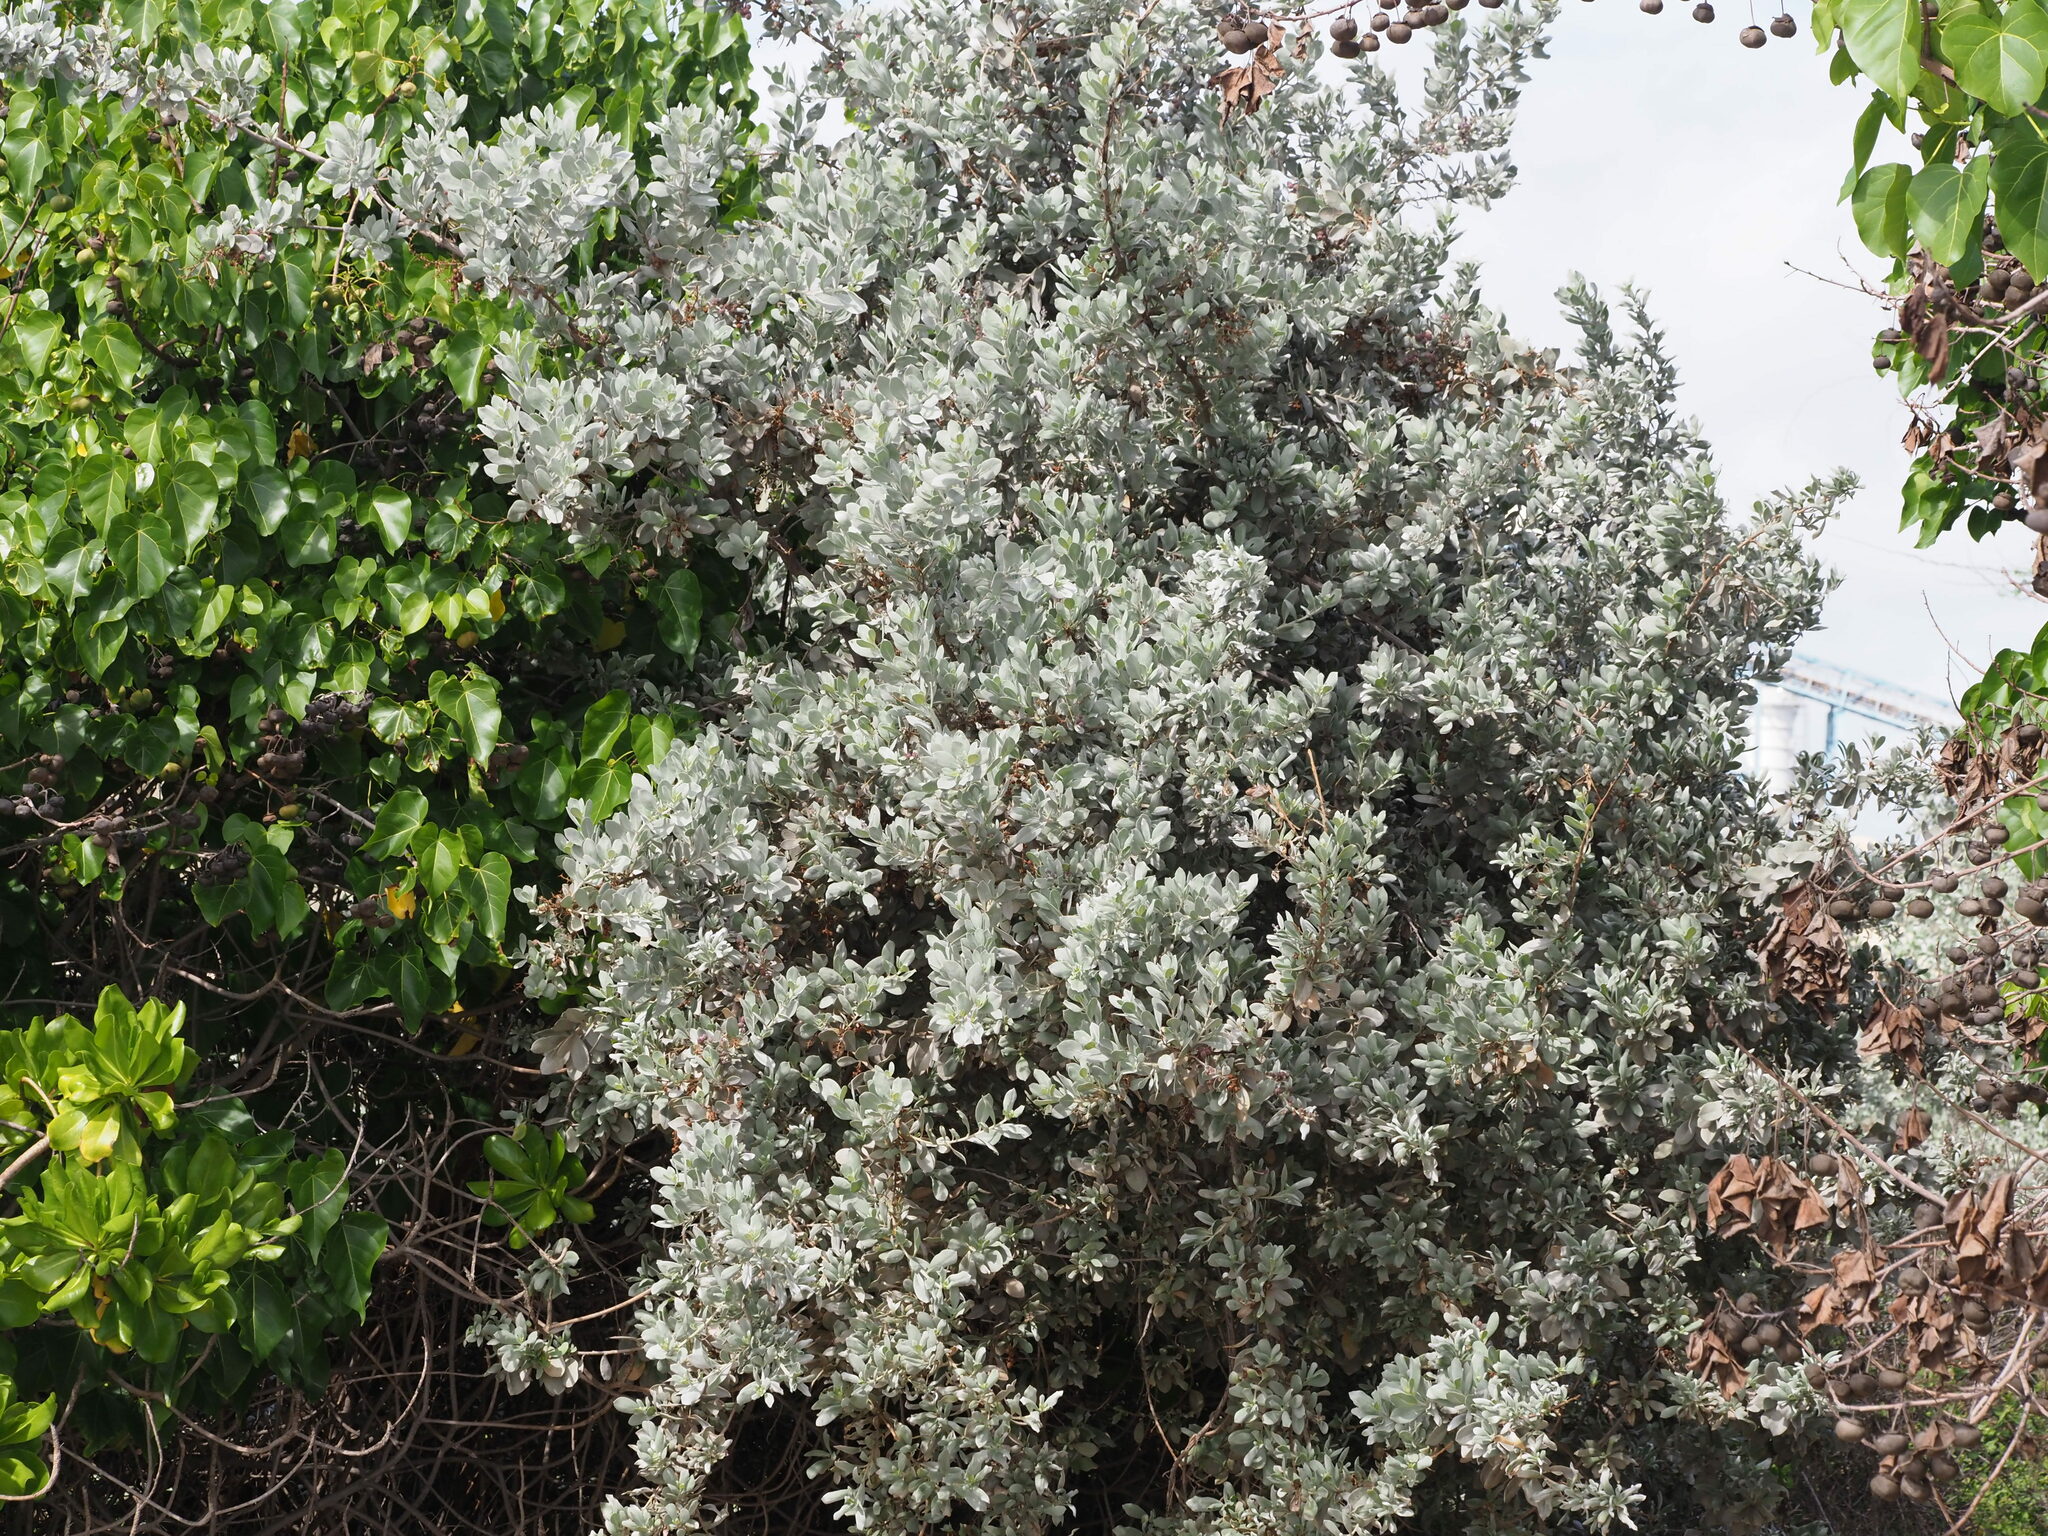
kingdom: Plantae
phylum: Tracheophyta
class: Magnoliopsida
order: Myrtales
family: Combretaceae
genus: Conocarpus
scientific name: Conocarpus erectus
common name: Button mangrove
